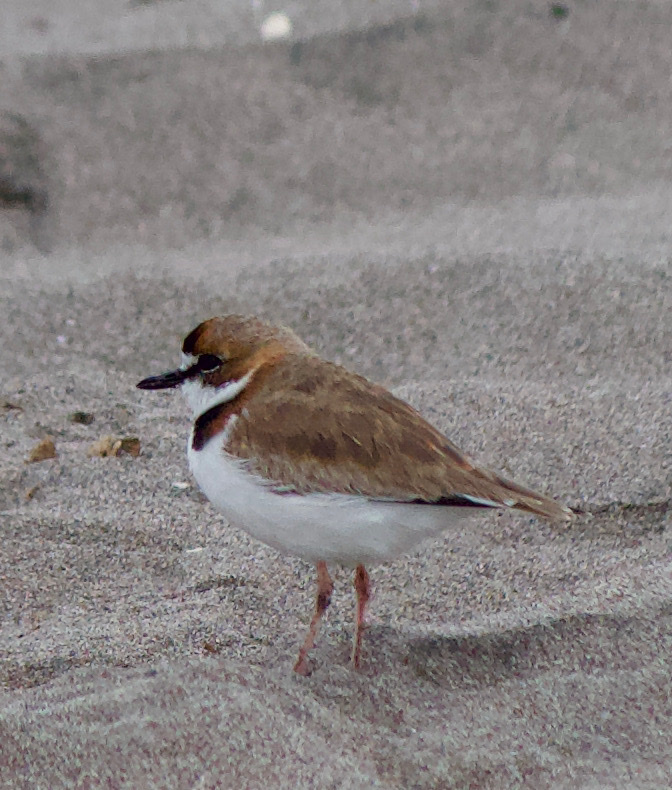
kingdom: Animalia
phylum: Chordata
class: Aves
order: Charadriiformes
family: Charadriidae
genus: Anarhynchus
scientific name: Anarhynchus
